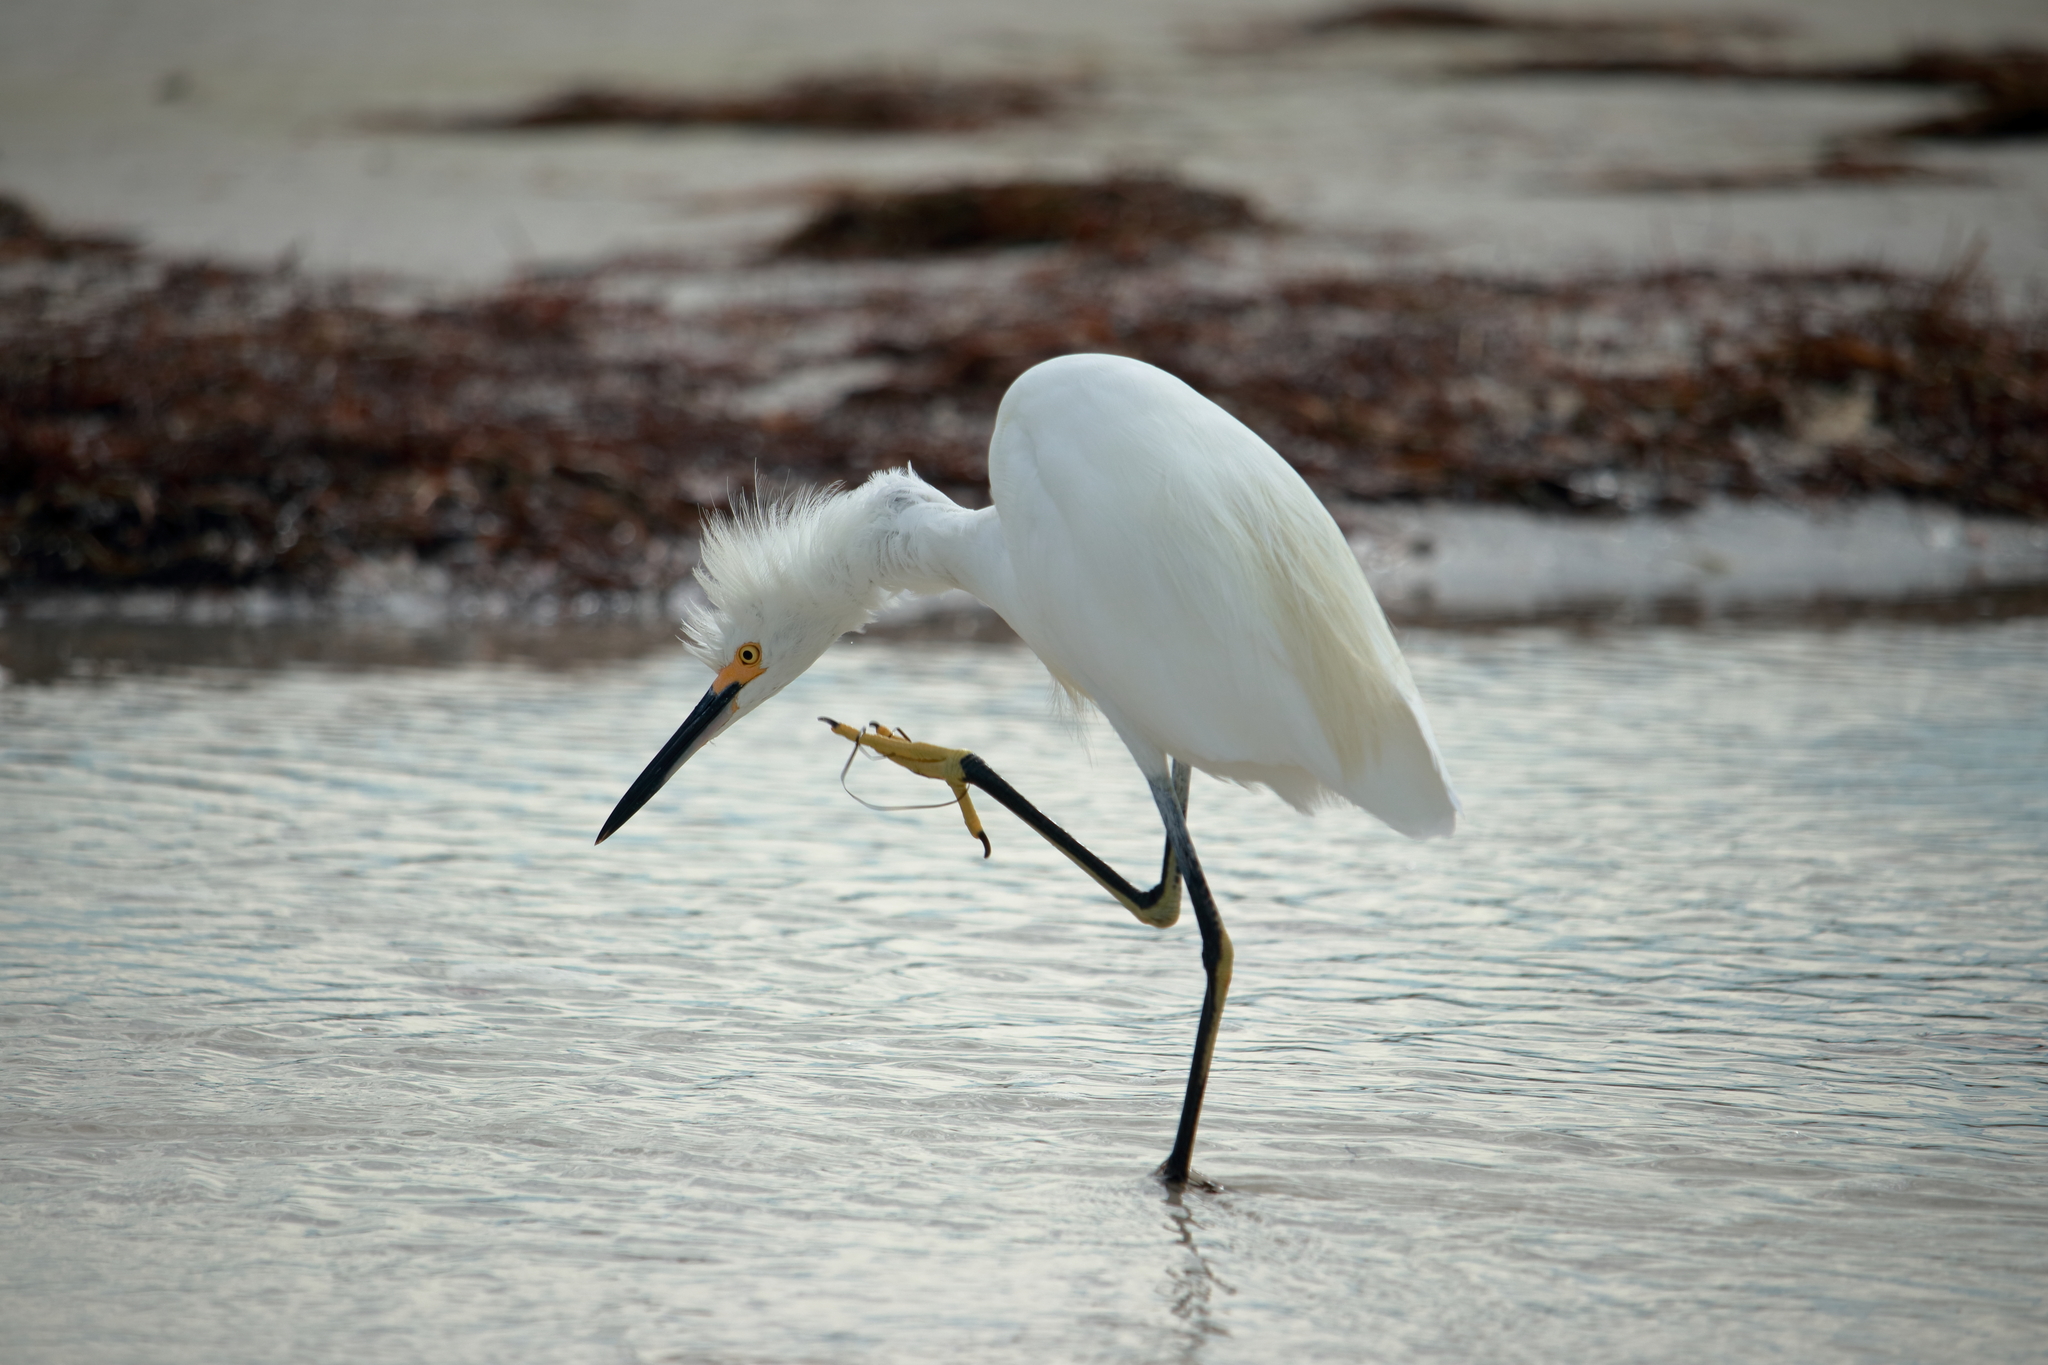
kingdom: Animalia
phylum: Chordata
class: Aves
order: Pelecaniformes
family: Ardeidae
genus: Egretta
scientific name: Egretta thula
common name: Snowy egret
